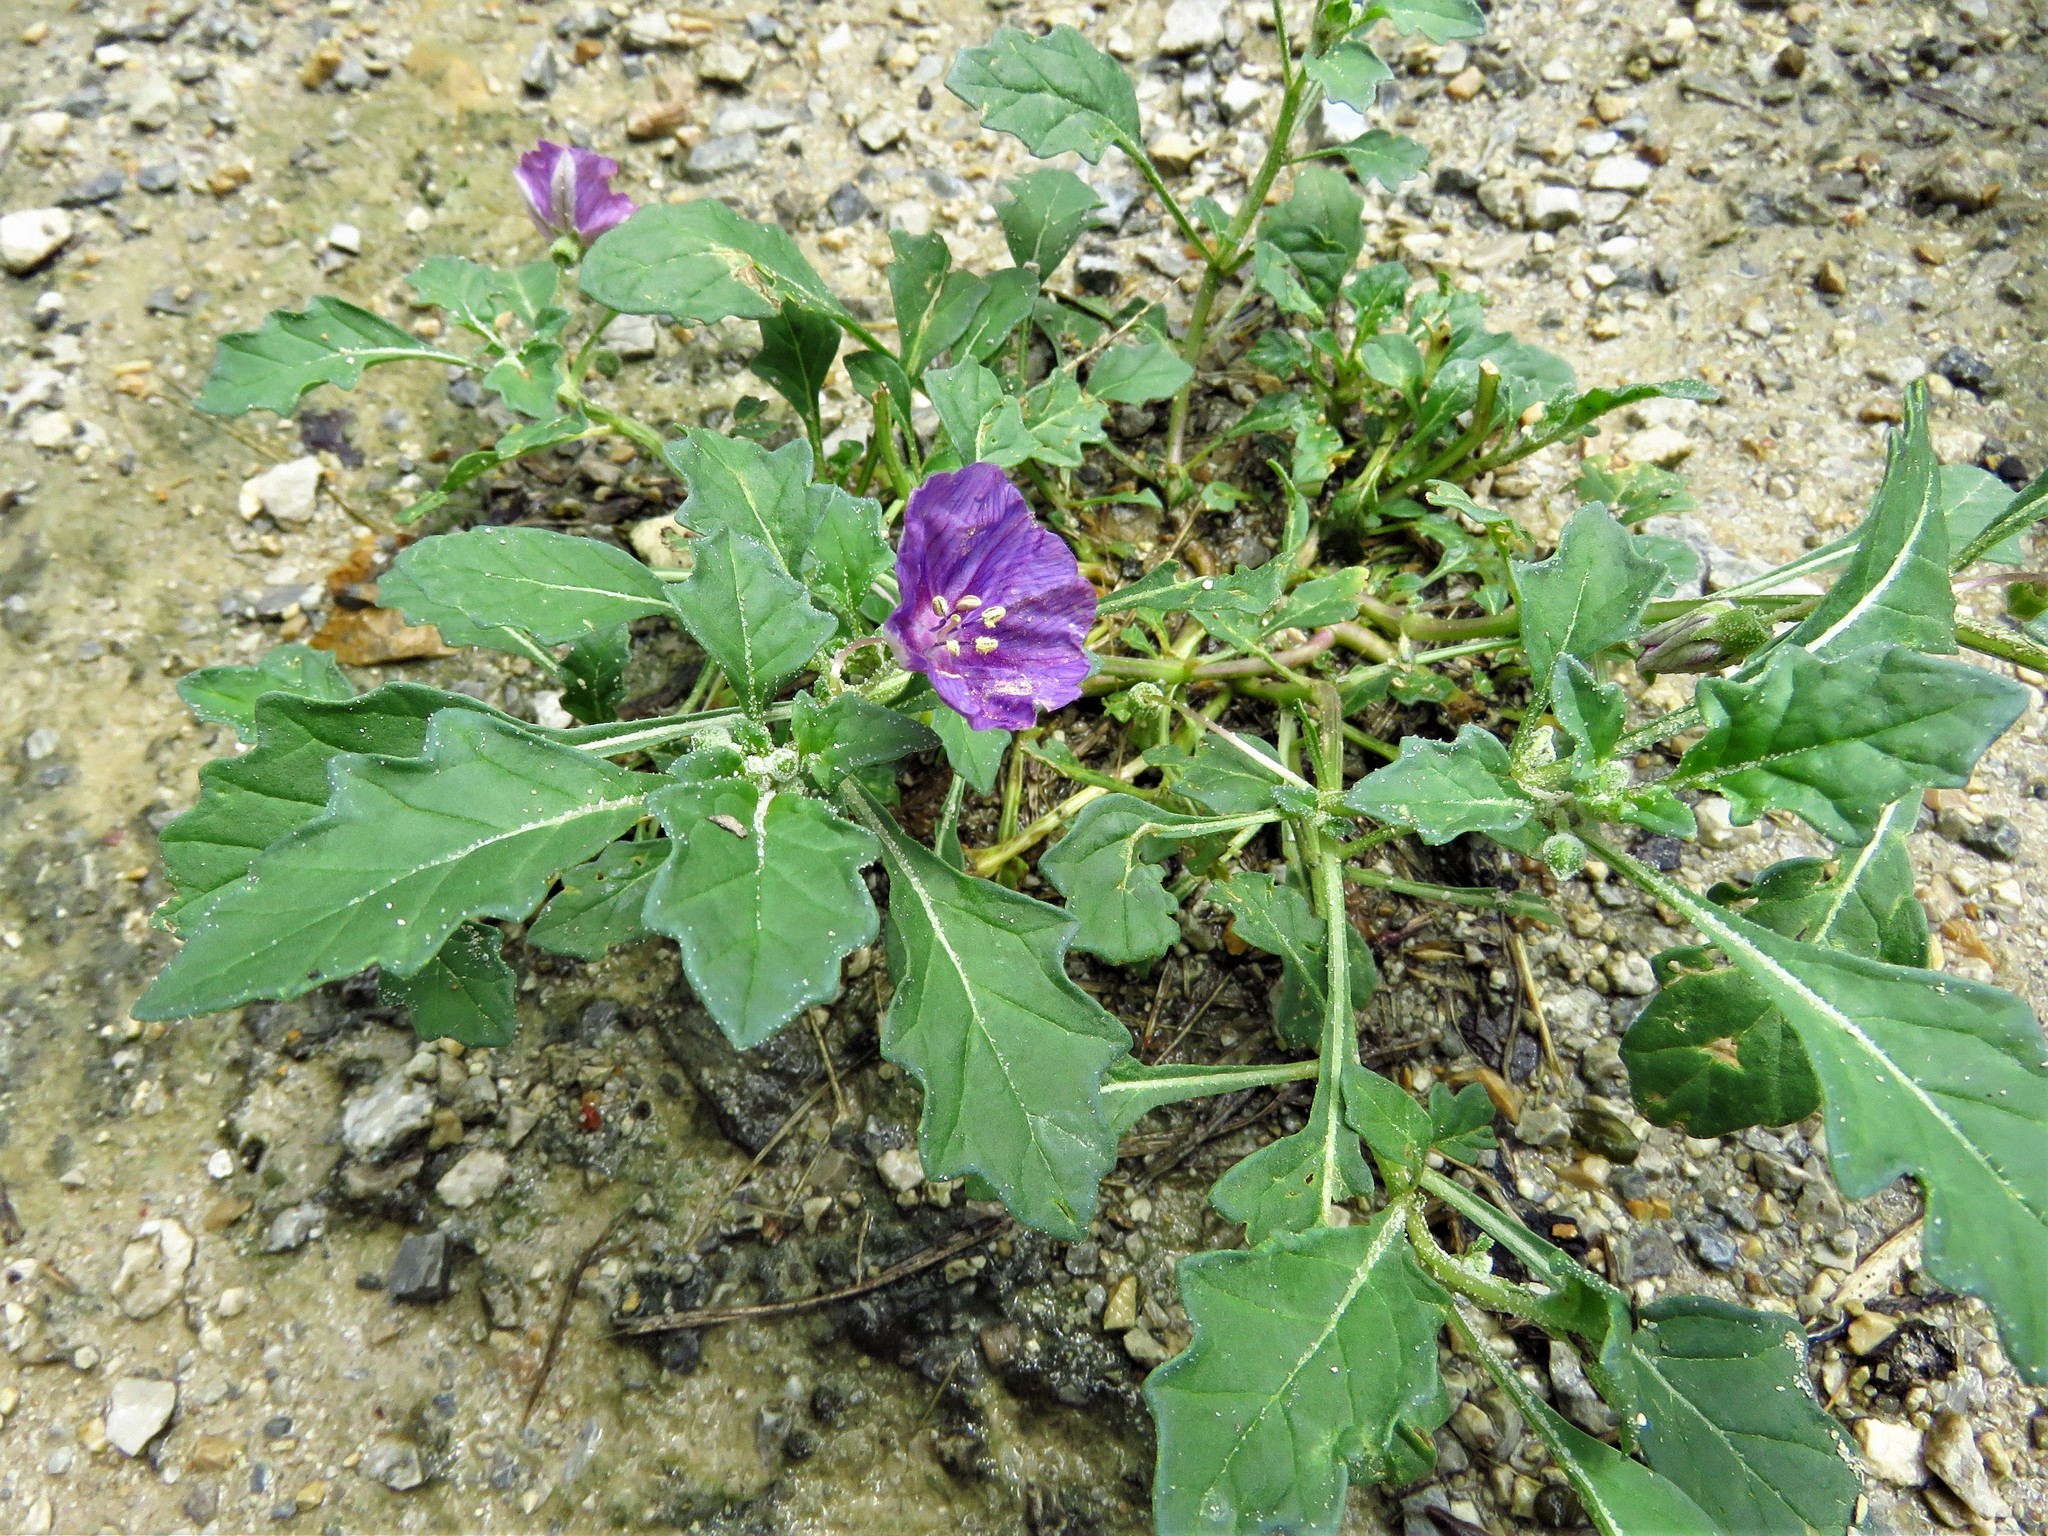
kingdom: Plantae
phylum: Tracheophyta
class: Magnoliopsida
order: Solanales
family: Solanaceae
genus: Quincula
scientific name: Quincula lobata
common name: Purple-ground-cherry
